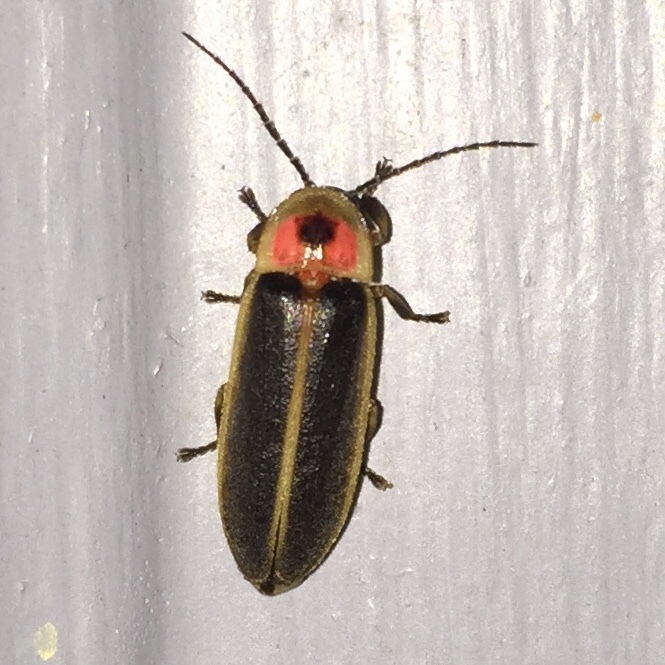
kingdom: Animalia
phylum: Arthropoda
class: Insecta
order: Coleoptera
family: Lampyridae
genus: Photinus
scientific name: Photinus pyralis
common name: Big dipper firefly
